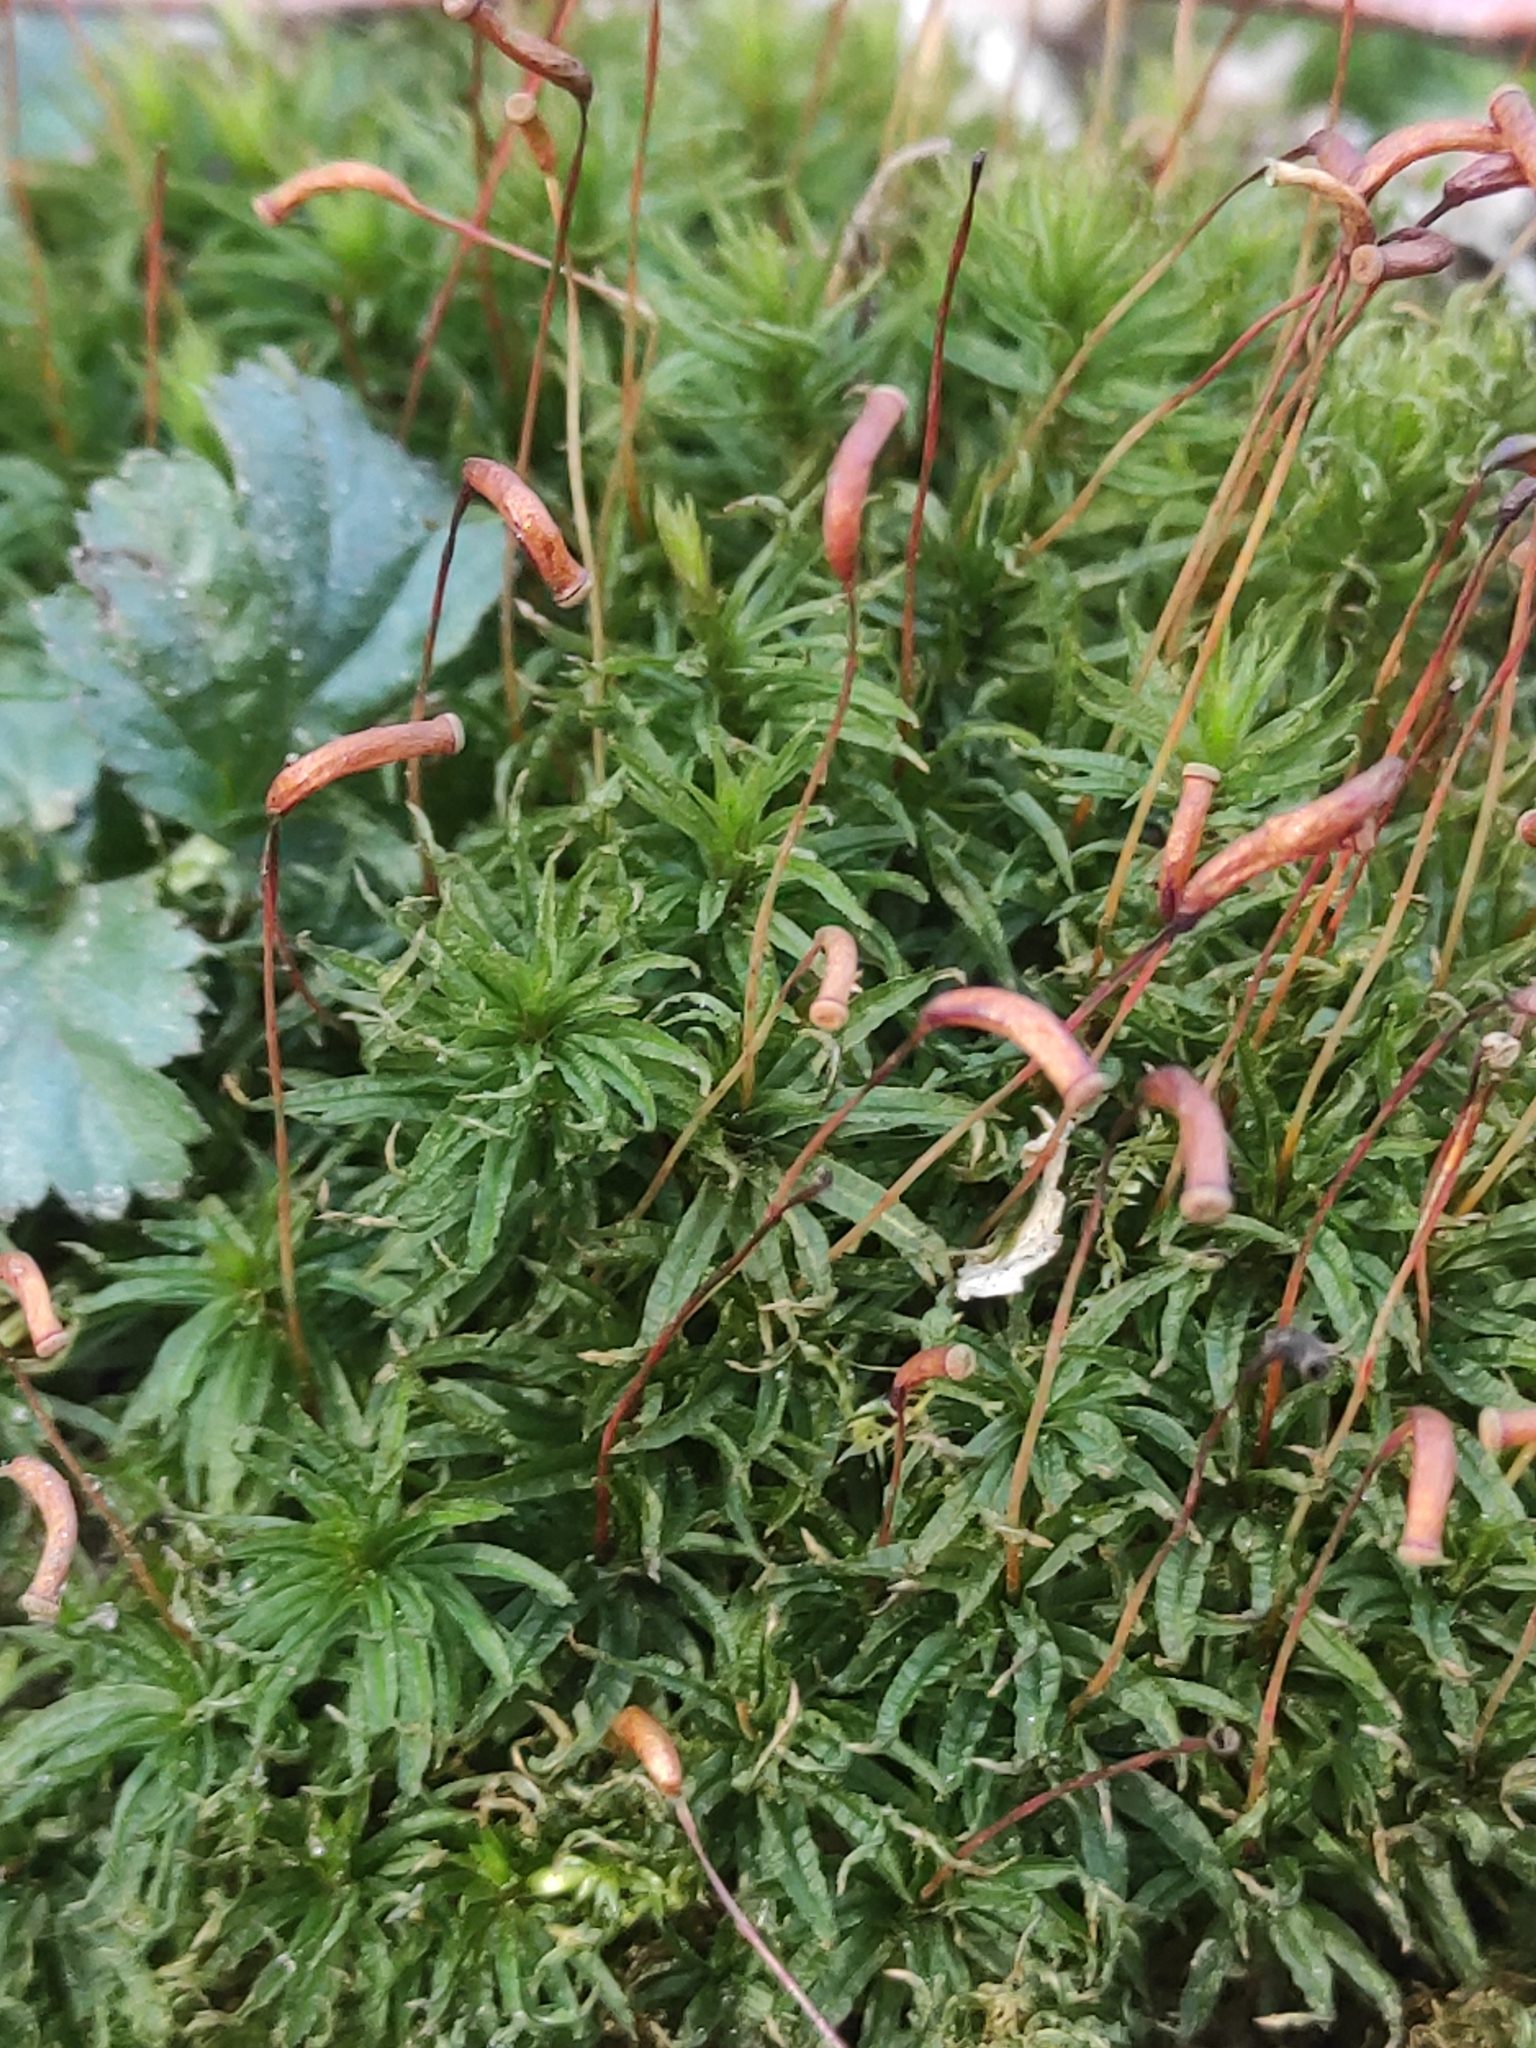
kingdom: Plantae
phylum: Bryophyta
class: Polytrichopsida
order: Polytrichales
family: Polytrichaceae
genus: Atrichum
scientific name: Atrichum undulatum
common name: Common smoothcap
